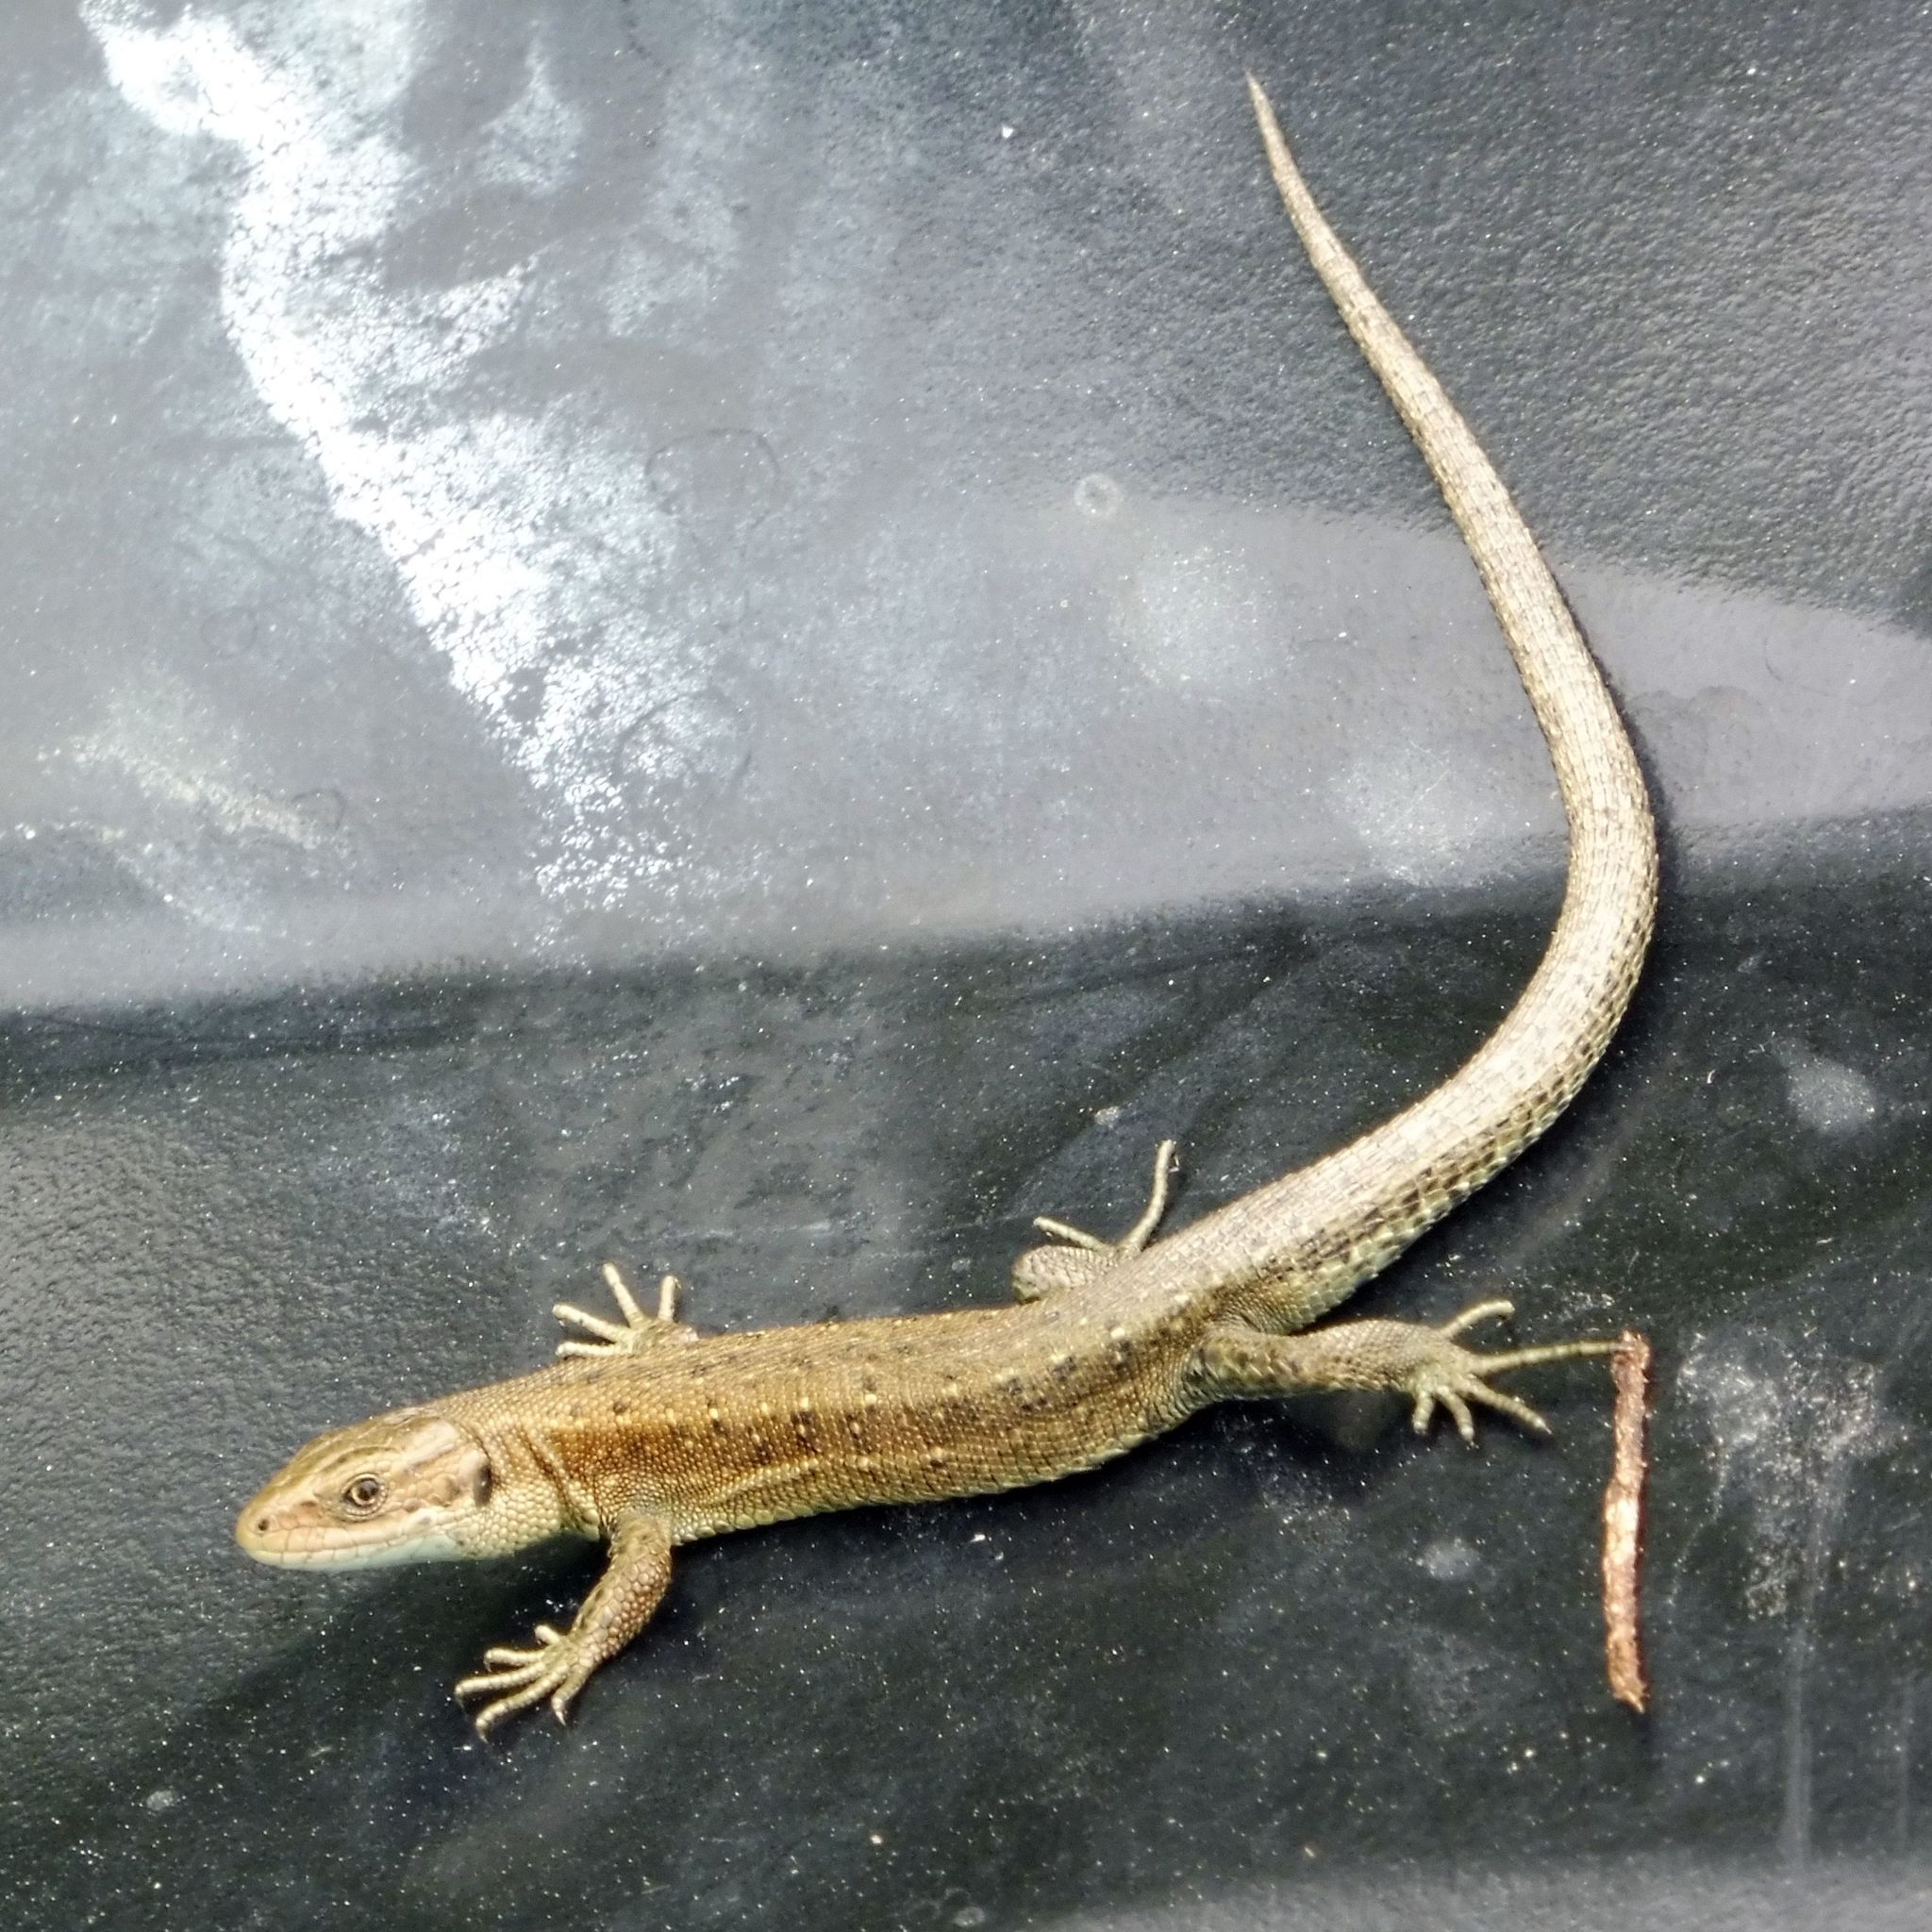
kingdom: Animalia
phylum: Chordata
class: Squamata
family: Lacertidae
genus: Zootoca
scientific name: Zootoca vivipara
